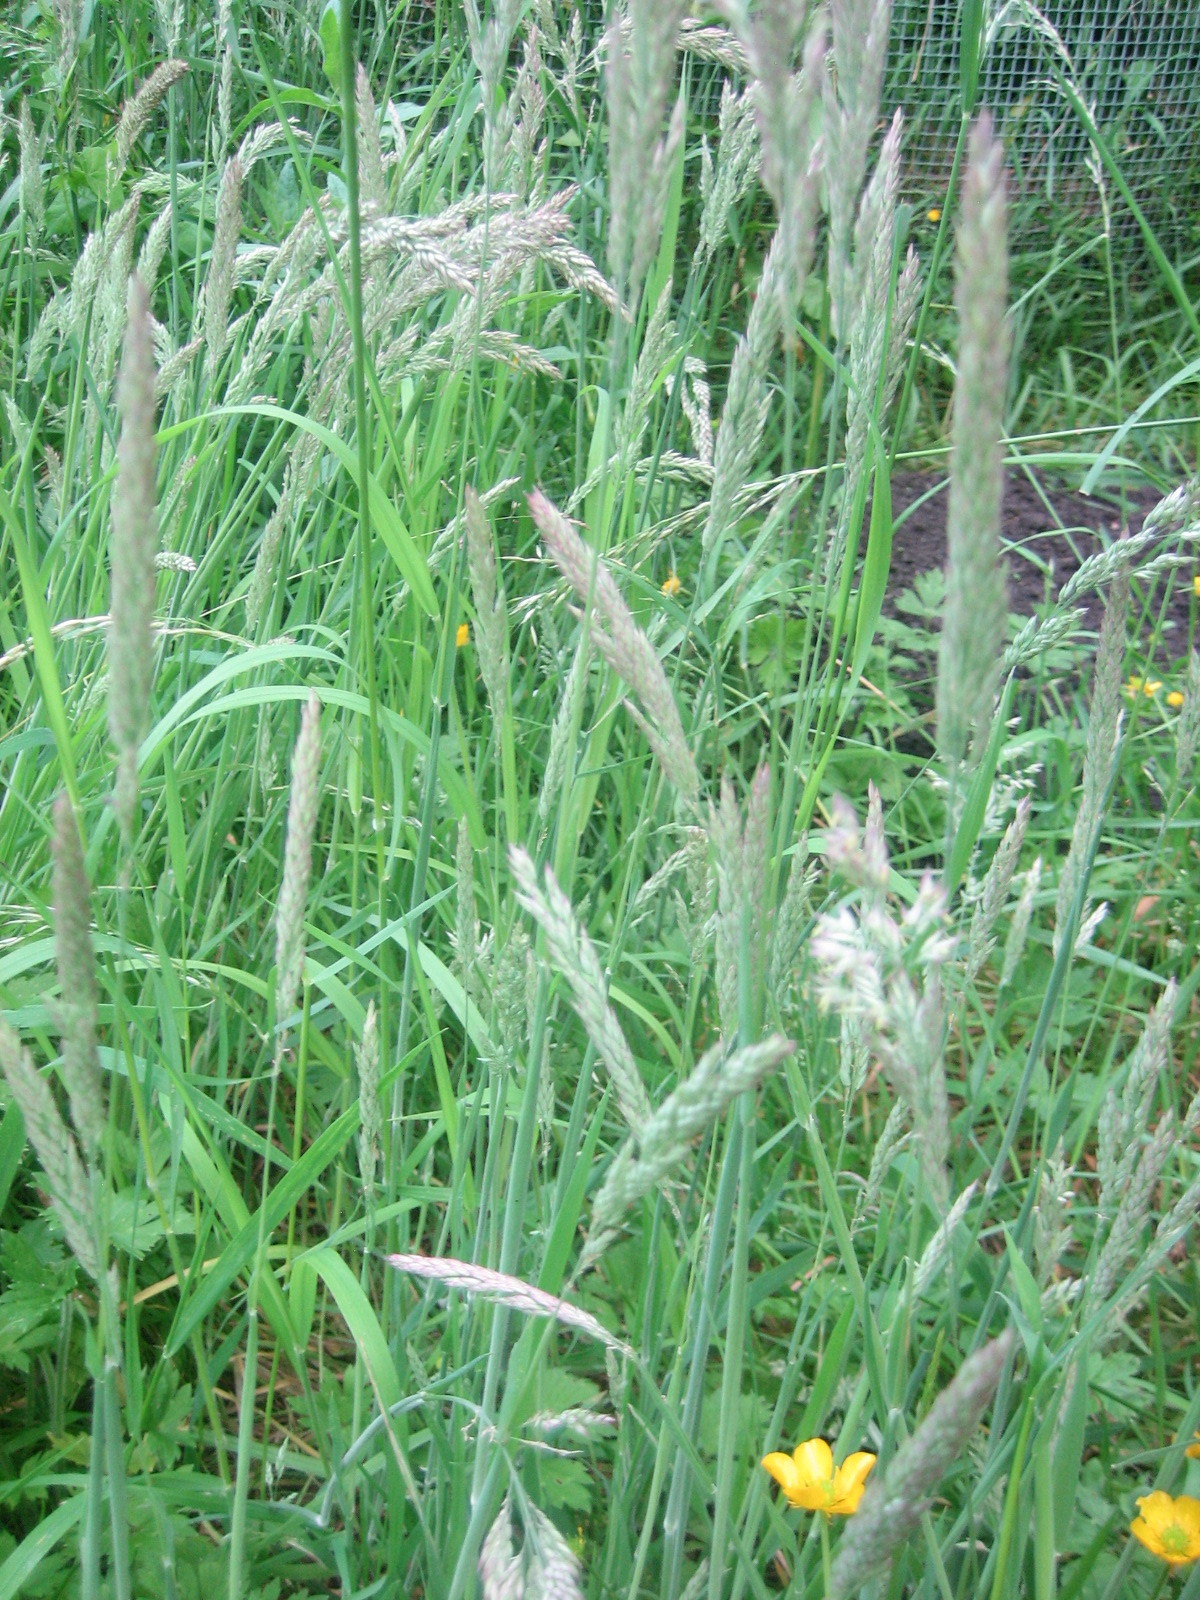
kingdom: Plantae
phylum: Tracheophyta
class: Liliopsida
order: Poales
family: Poaceae
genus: Holcus
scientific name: Holcus lanatus
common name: Yorkshire-fog
